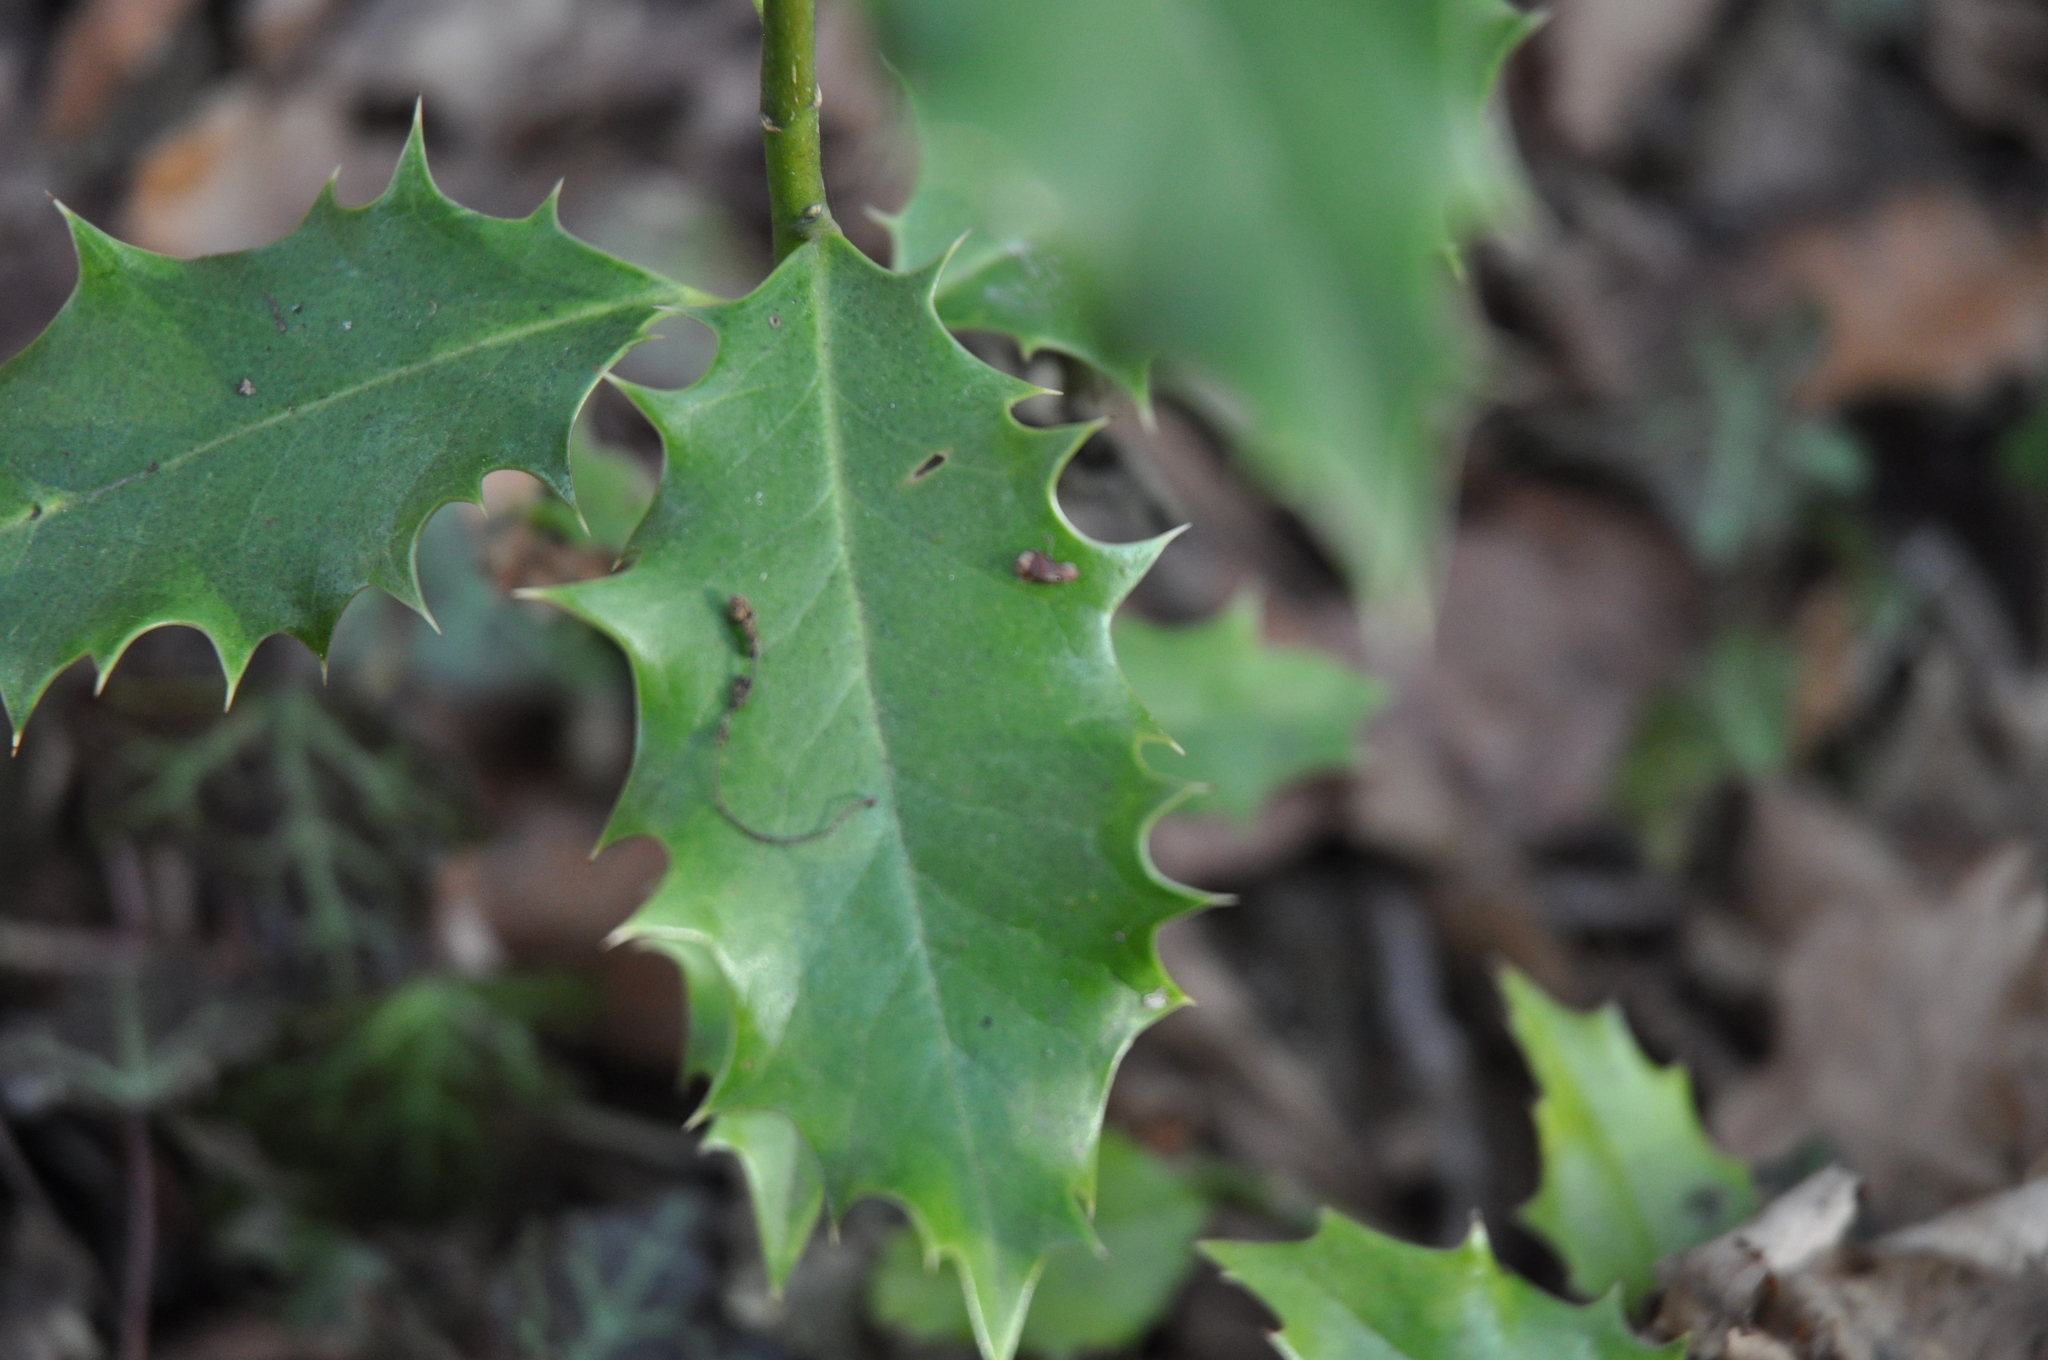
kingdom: Plantae
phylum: Tracheophyta
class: Magnoliopsida
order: Aquifoliales
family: Aquifoliaceae
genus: Ilex
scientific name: Ilex aquifolium
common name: English holly
